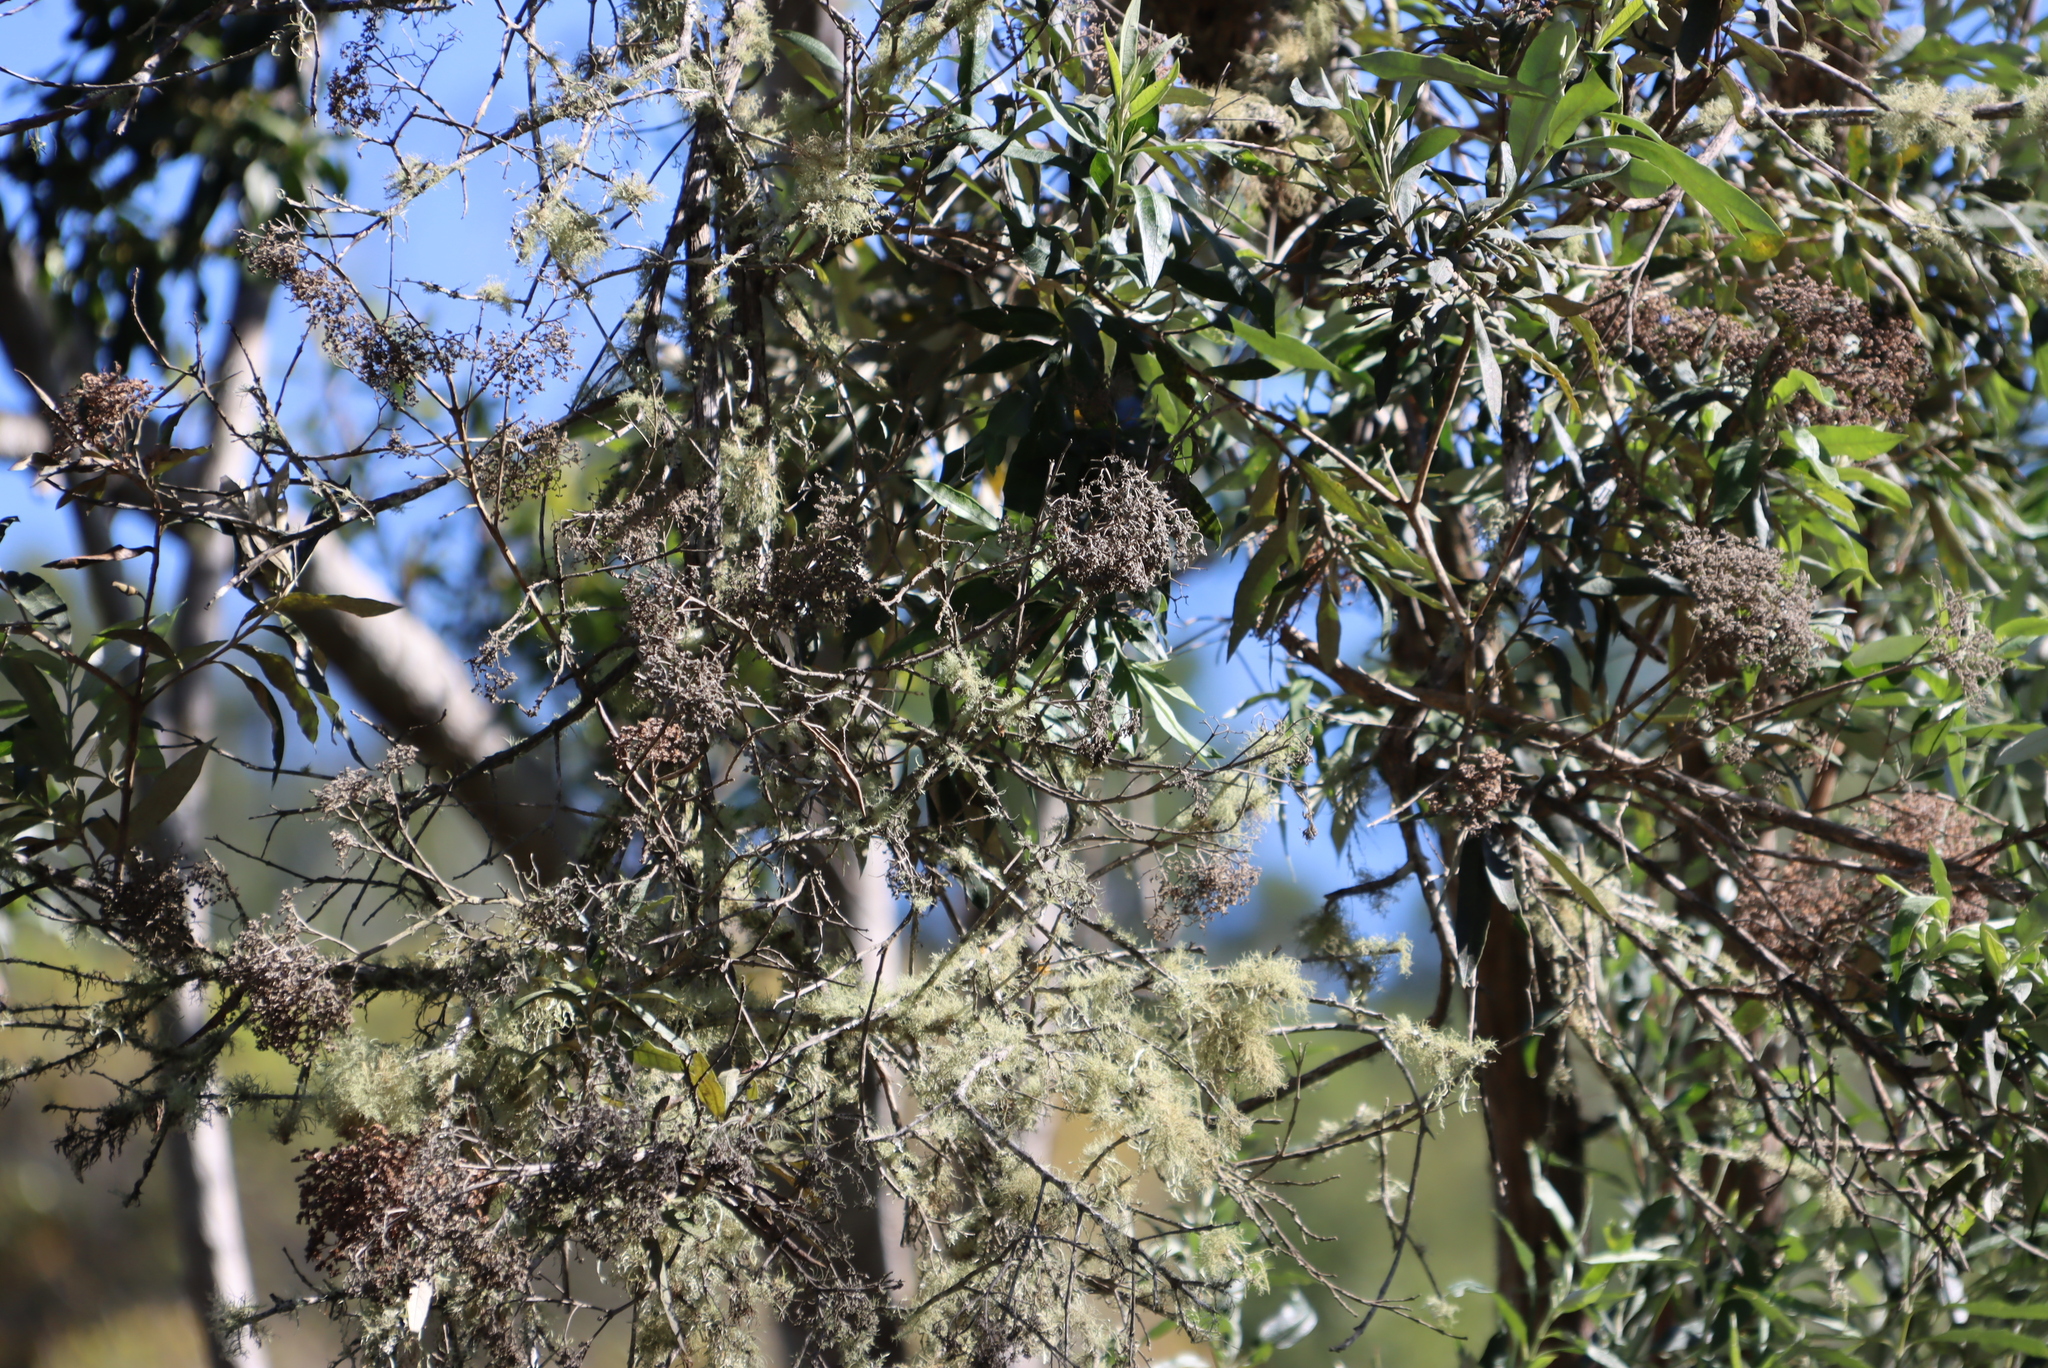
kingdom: Plantae
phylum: Tracheophyta
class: Magnoliopsida
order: Lamiales
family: Scrophulariaceae
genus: Buddleja
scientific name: Buddleja saligna
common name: False olive
